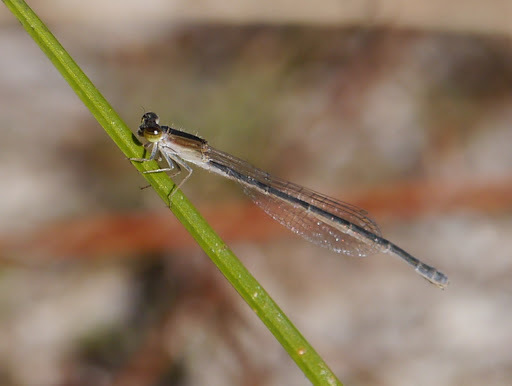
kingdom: Animalia
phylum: Arthropoda
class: Insecta
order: Odonata
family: Coenagrionidae
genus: Ischnura
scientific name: Ischnura hastata
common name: Citrine forktail
